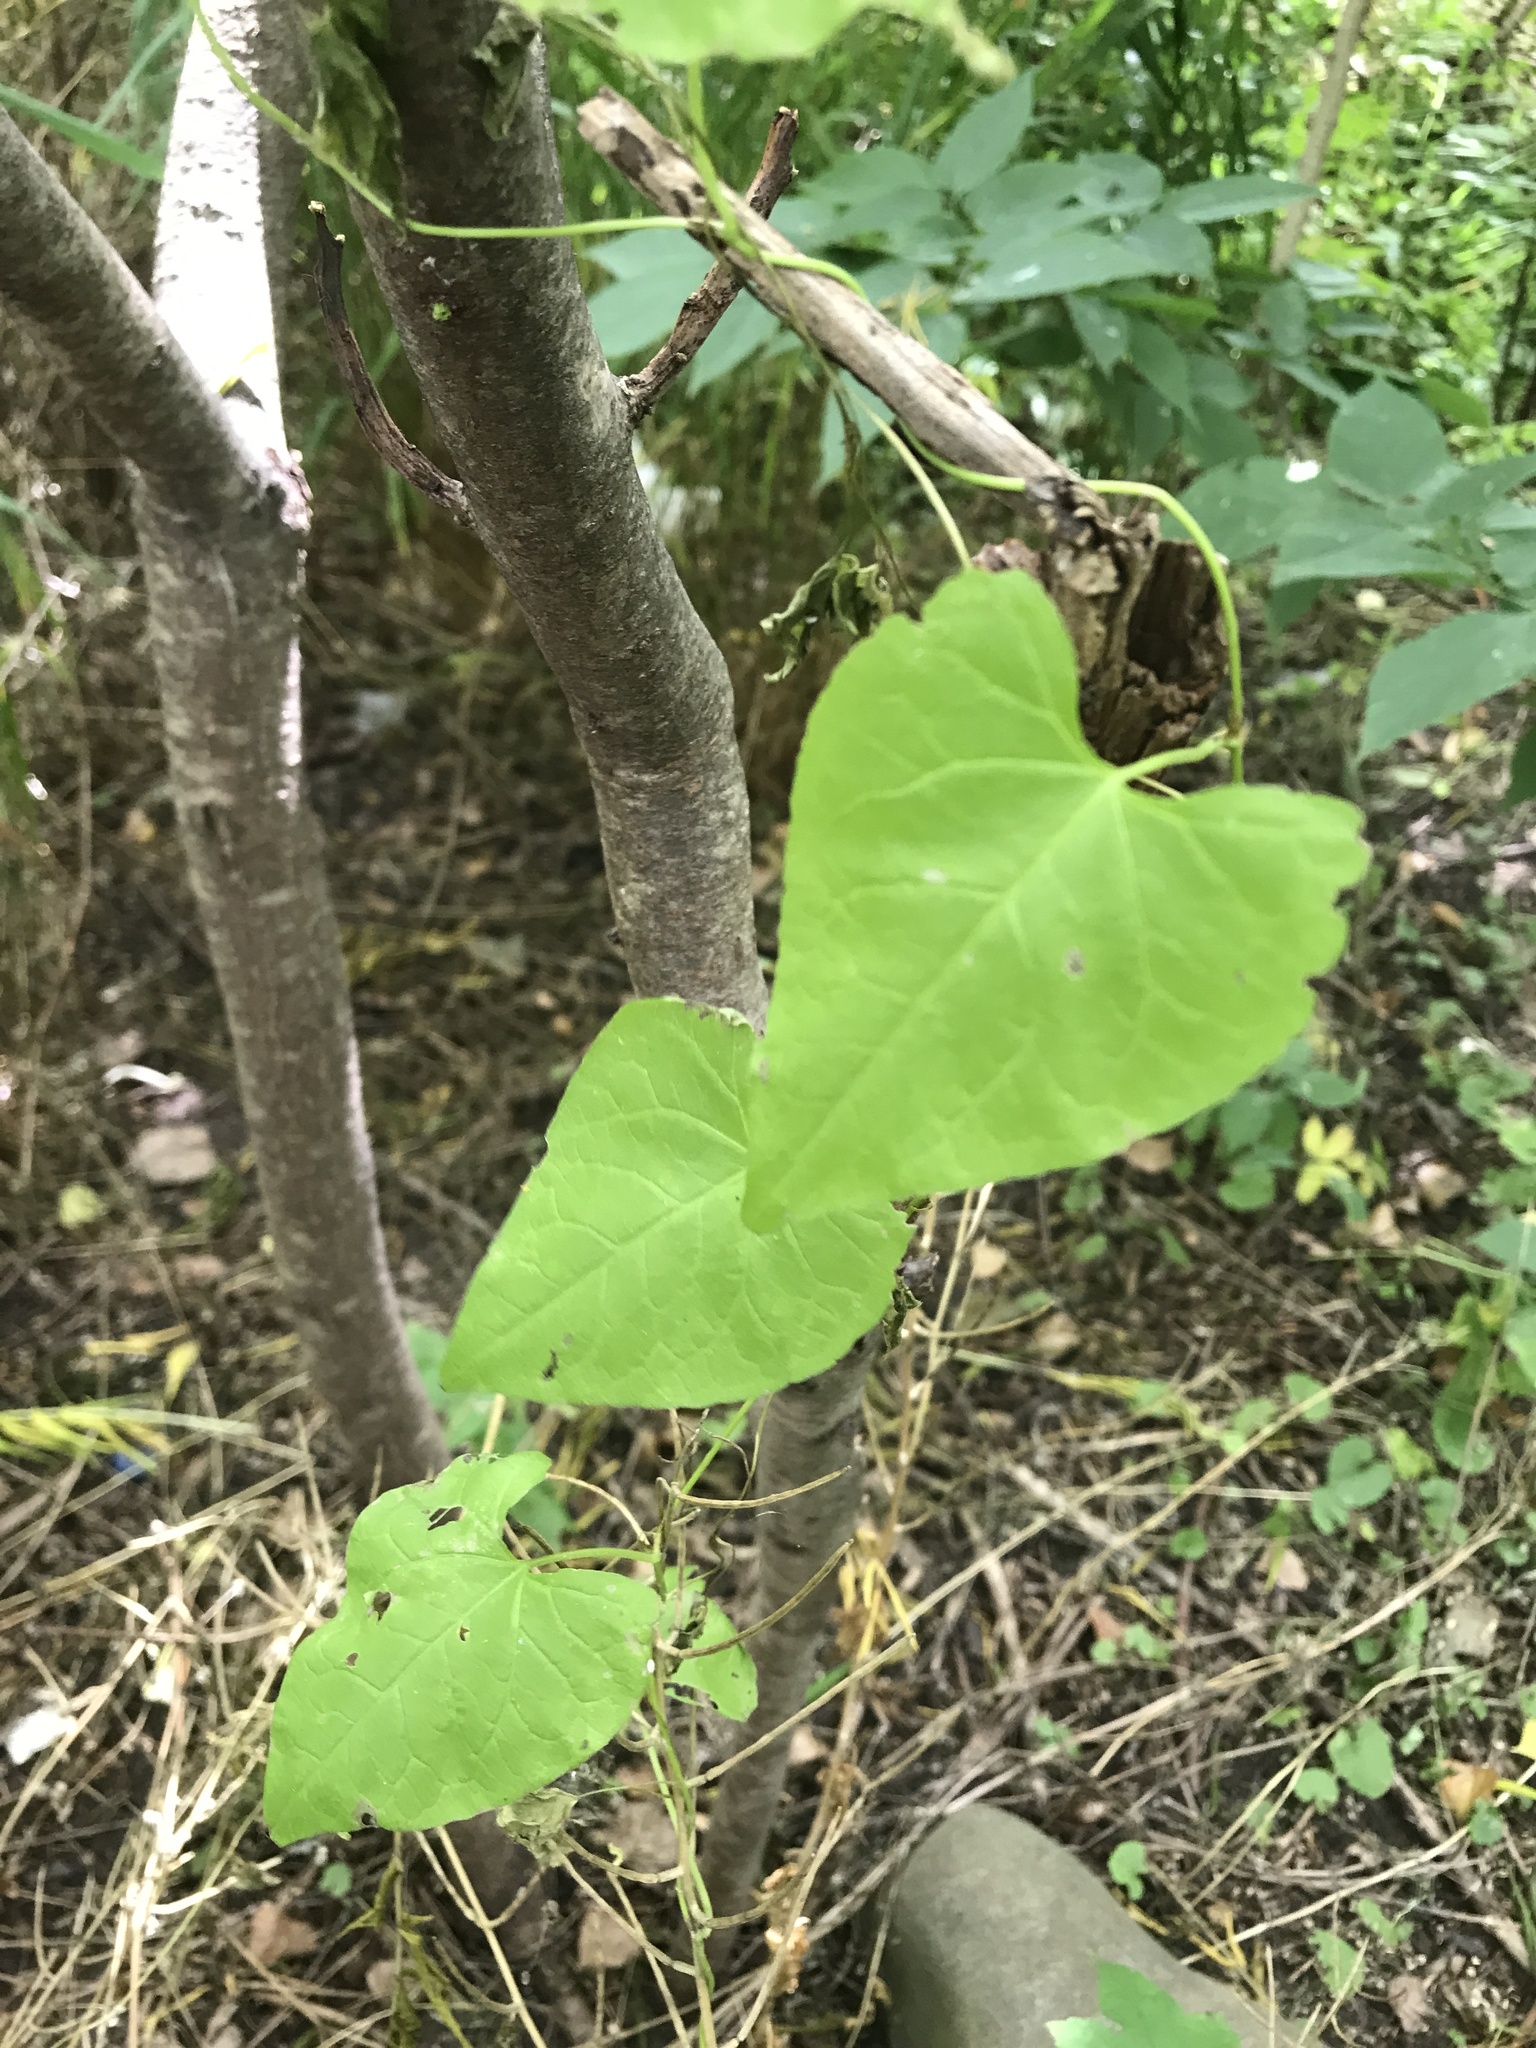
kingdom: Plantae
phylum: Tracheophyta
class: Magnoliopsida
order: Asterales
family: Asteraceae
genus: Mikania
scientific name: Mikania scandens
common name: Climbing hempvine
